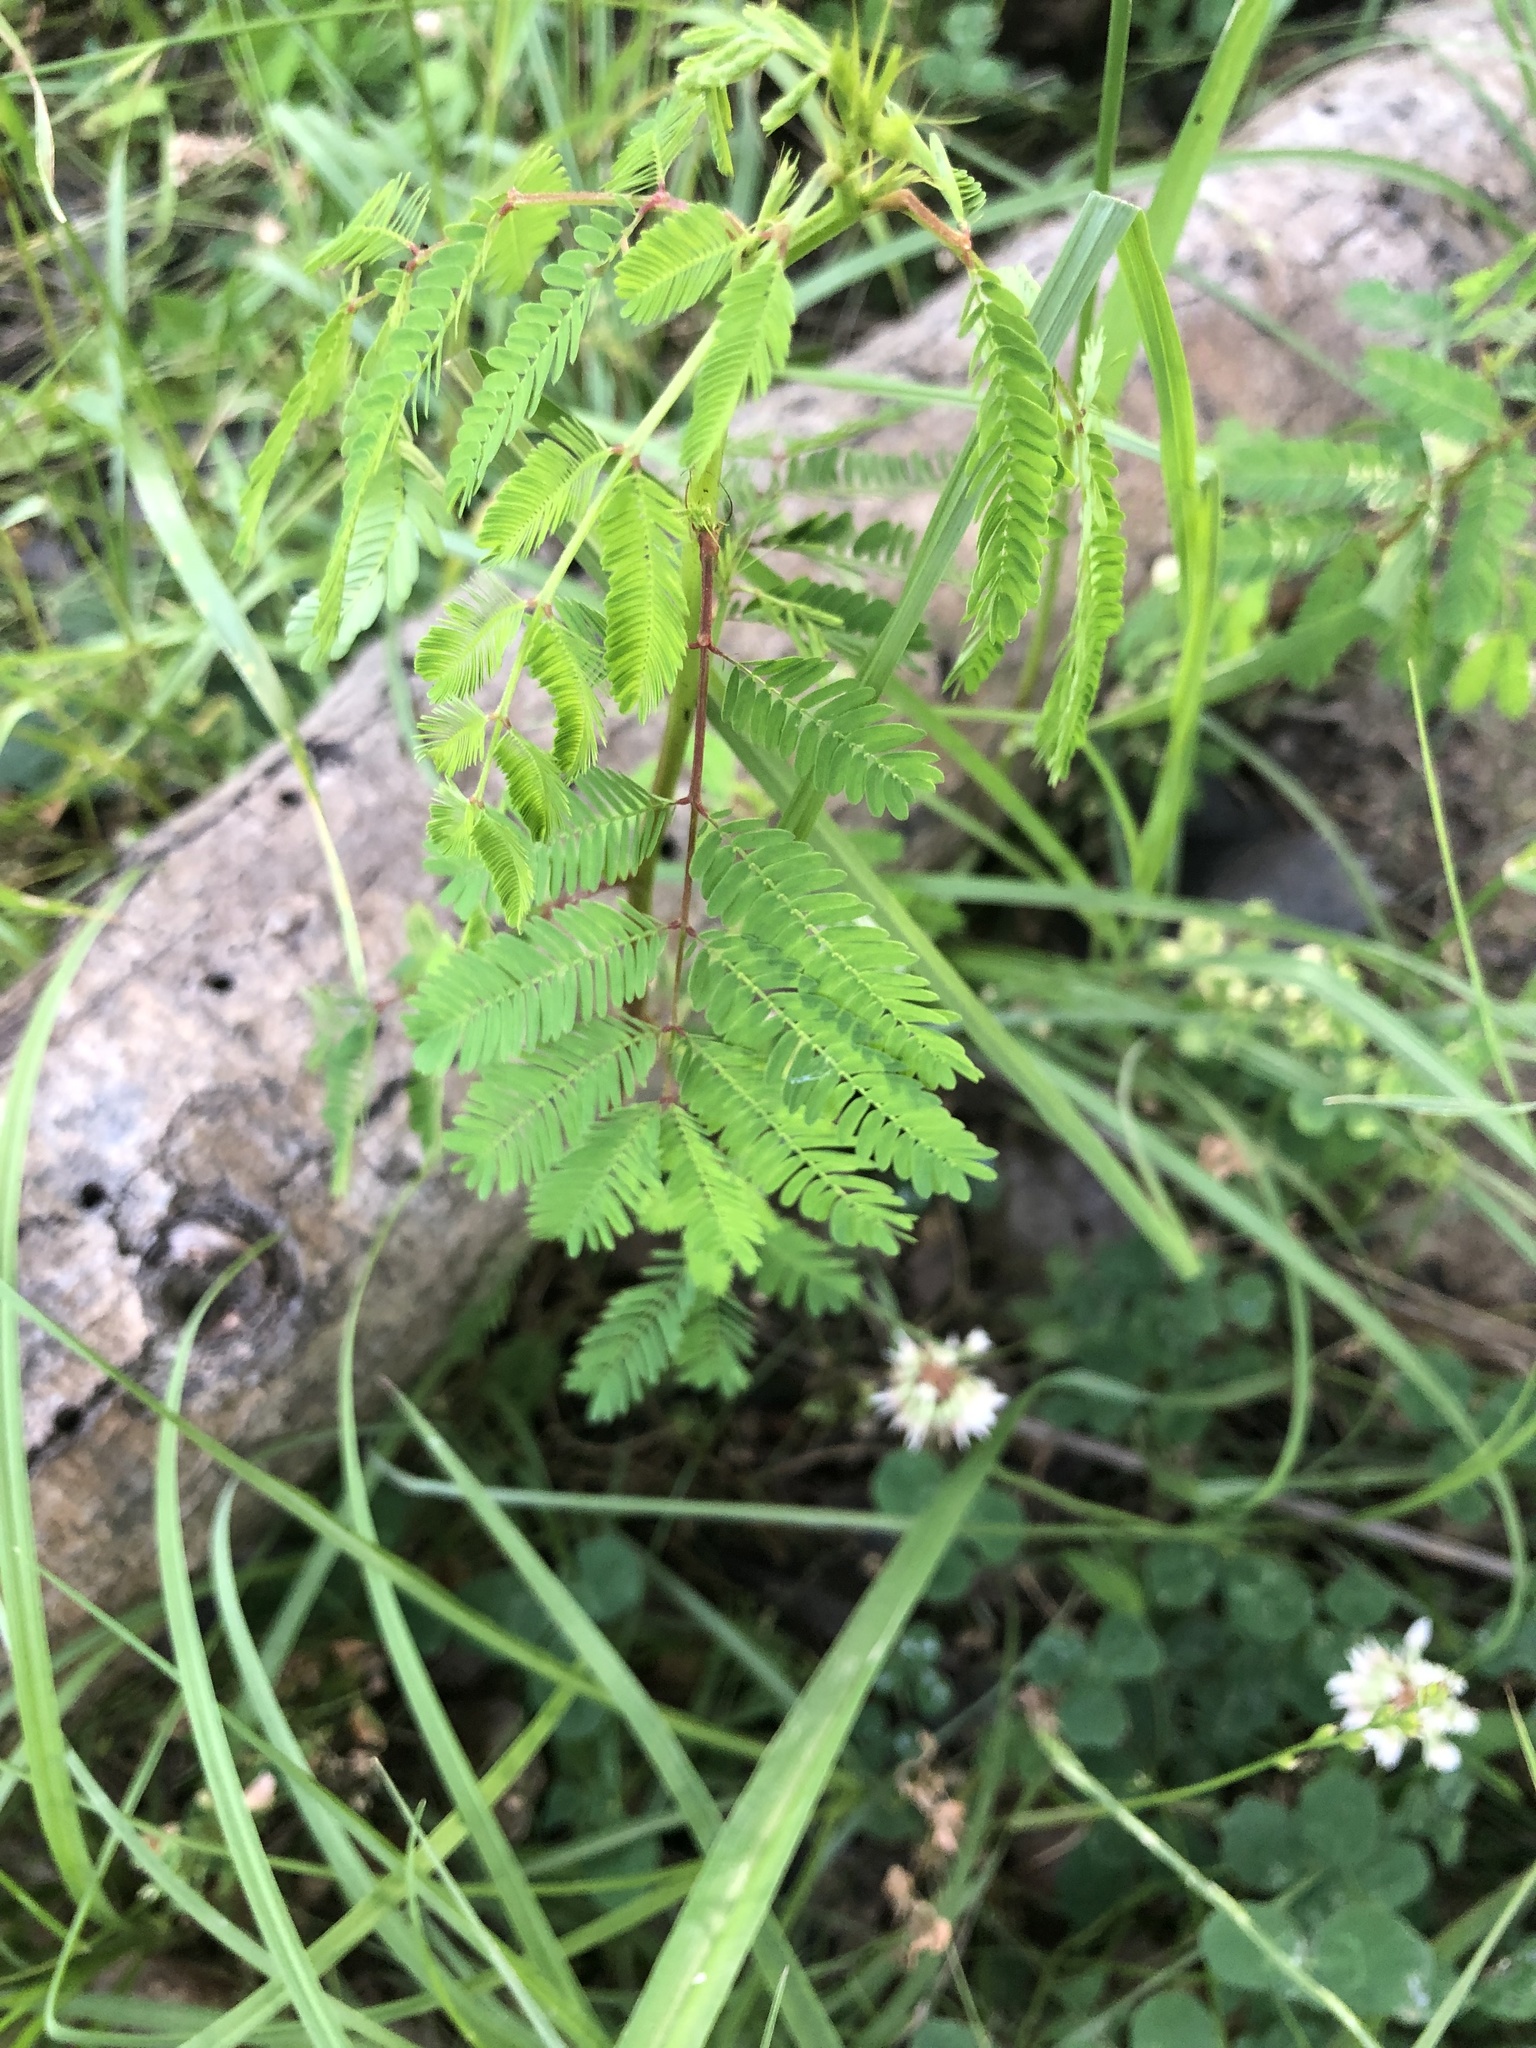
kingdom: Plantae
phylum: Tracheophyta
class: Magnoliopsida
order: Fabales
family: Fabaceae
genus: Desmanthus
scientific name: Desmanthus illinoensis
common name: Illinois bundle-flower
